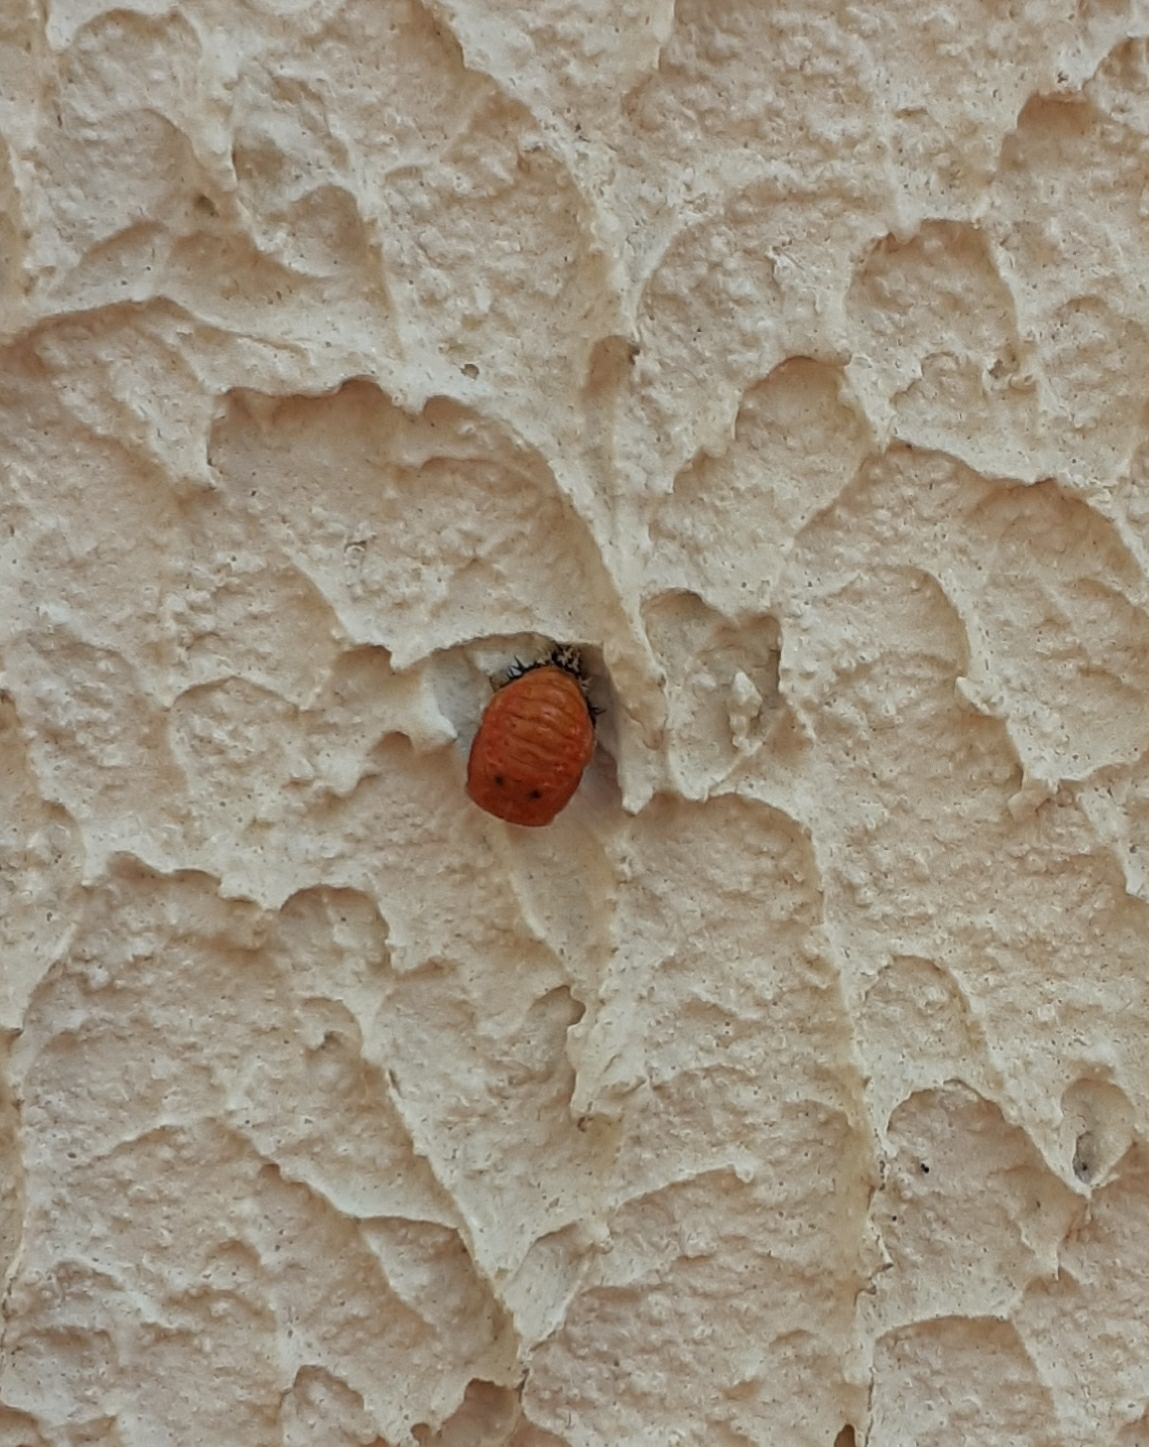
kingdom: Animalia
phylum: Arthropoda
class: Insecta
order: Coleoptera
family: Coccinellidae
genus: Harmonia
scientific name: Harmonia axyridis
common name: Harlequin ladybird
